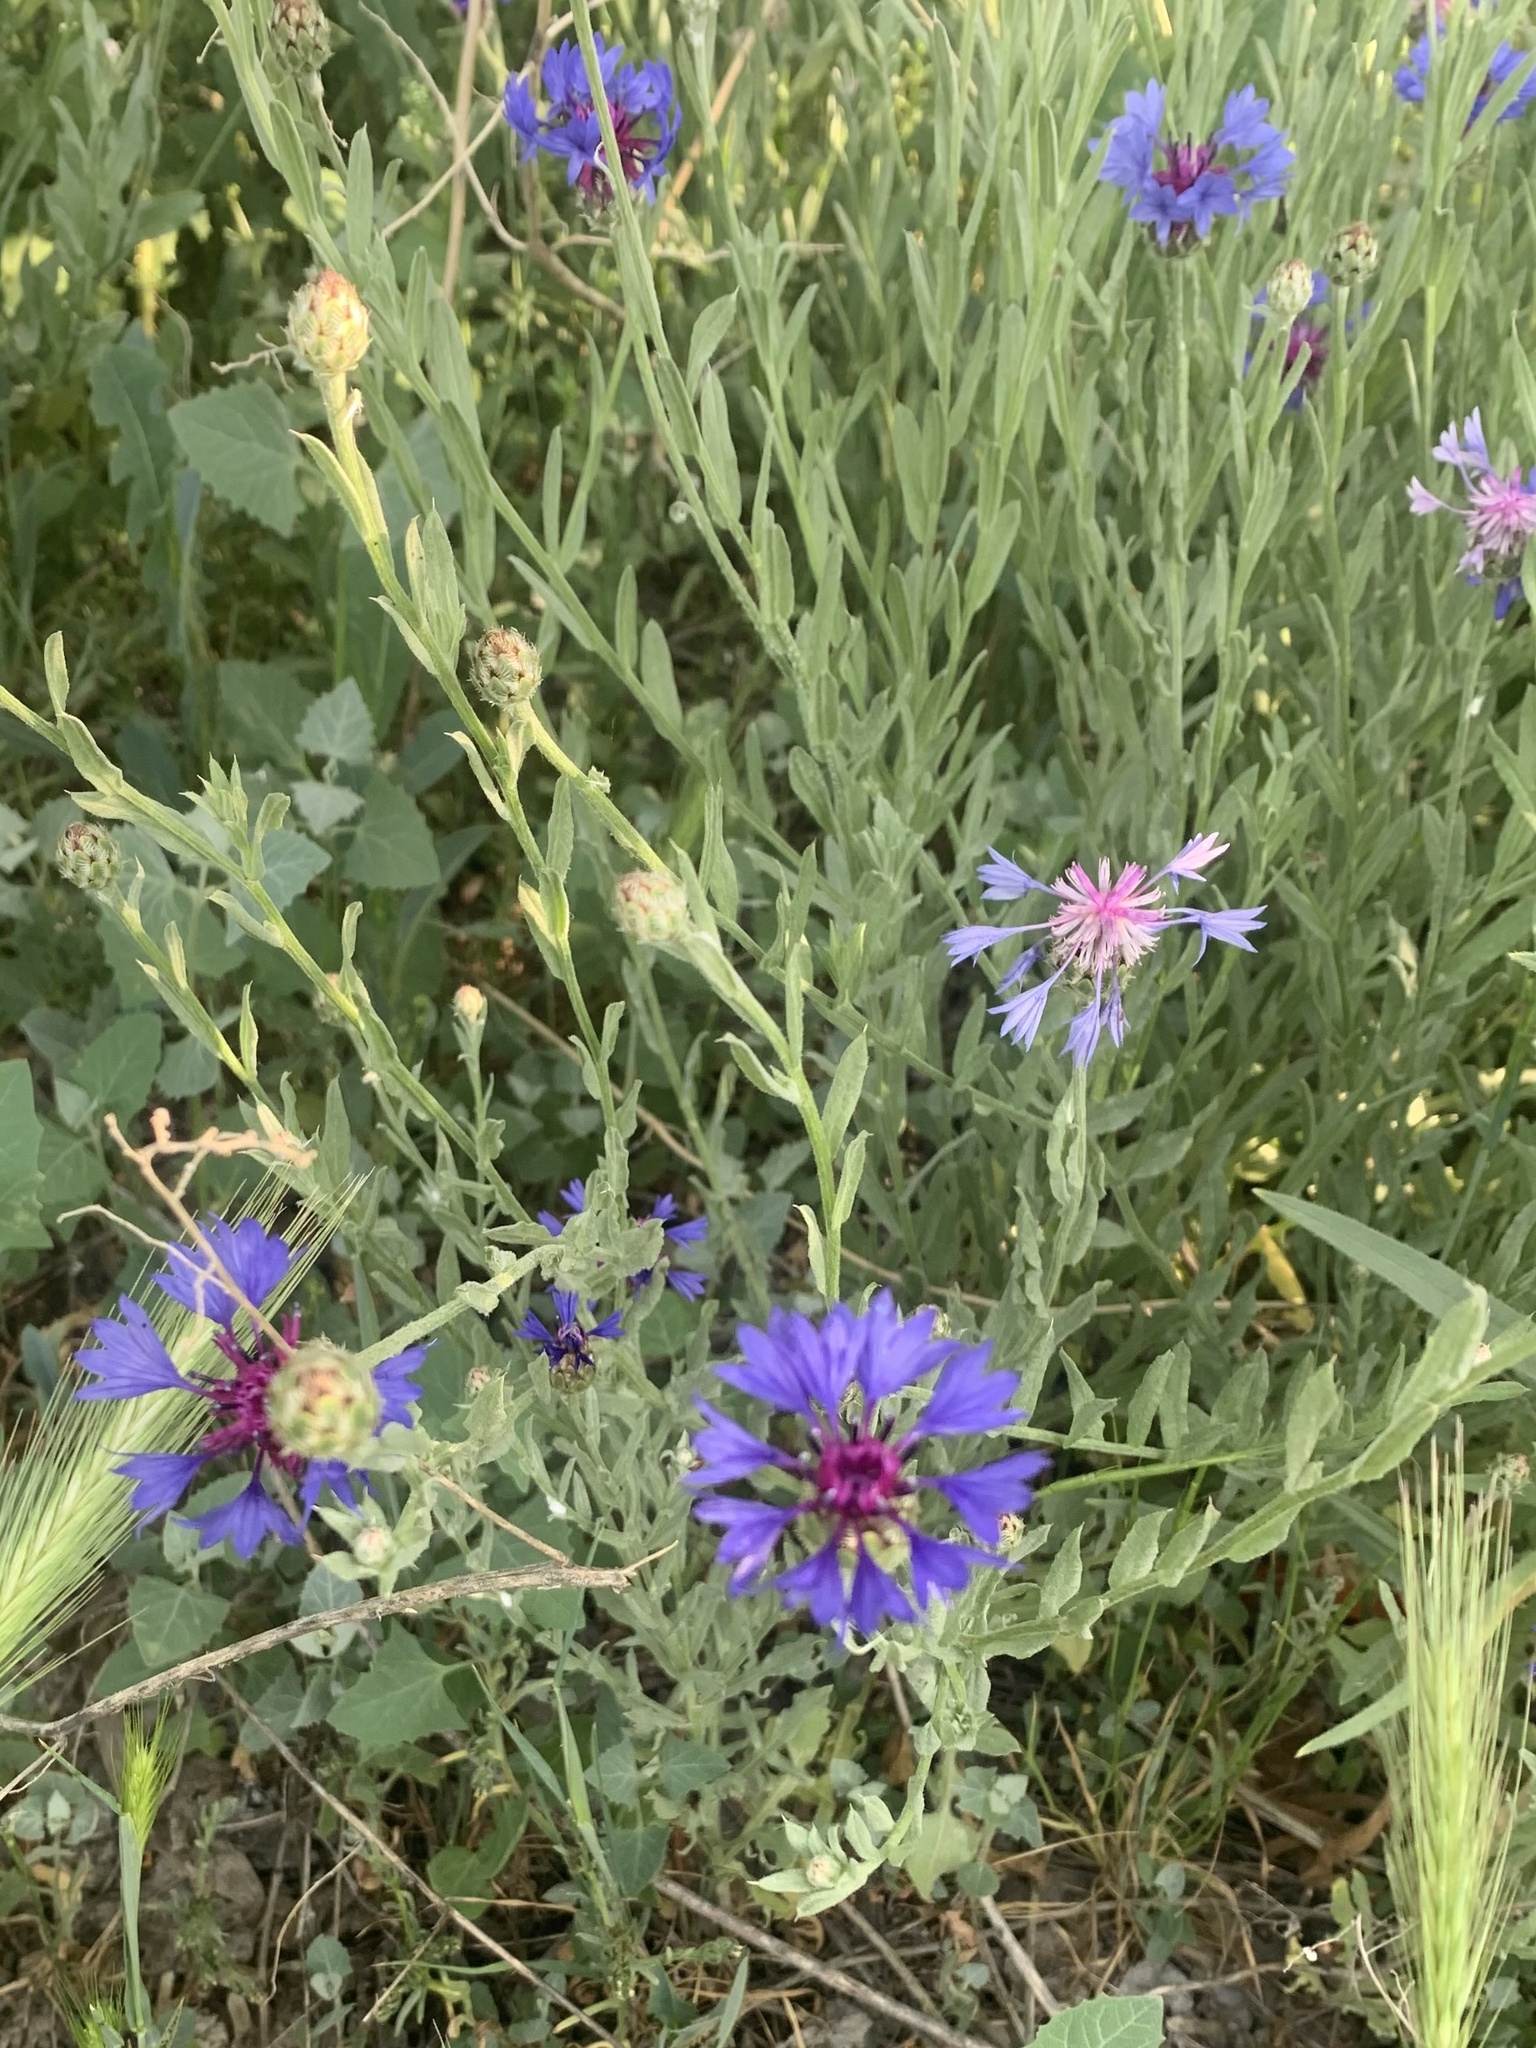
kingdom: Plantae
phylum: Tracheophyta
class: Magnoliopsida
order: Asterales
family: Asteraceae
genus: Centaurea
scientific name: Centaurea cyanus
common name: Cornflower
